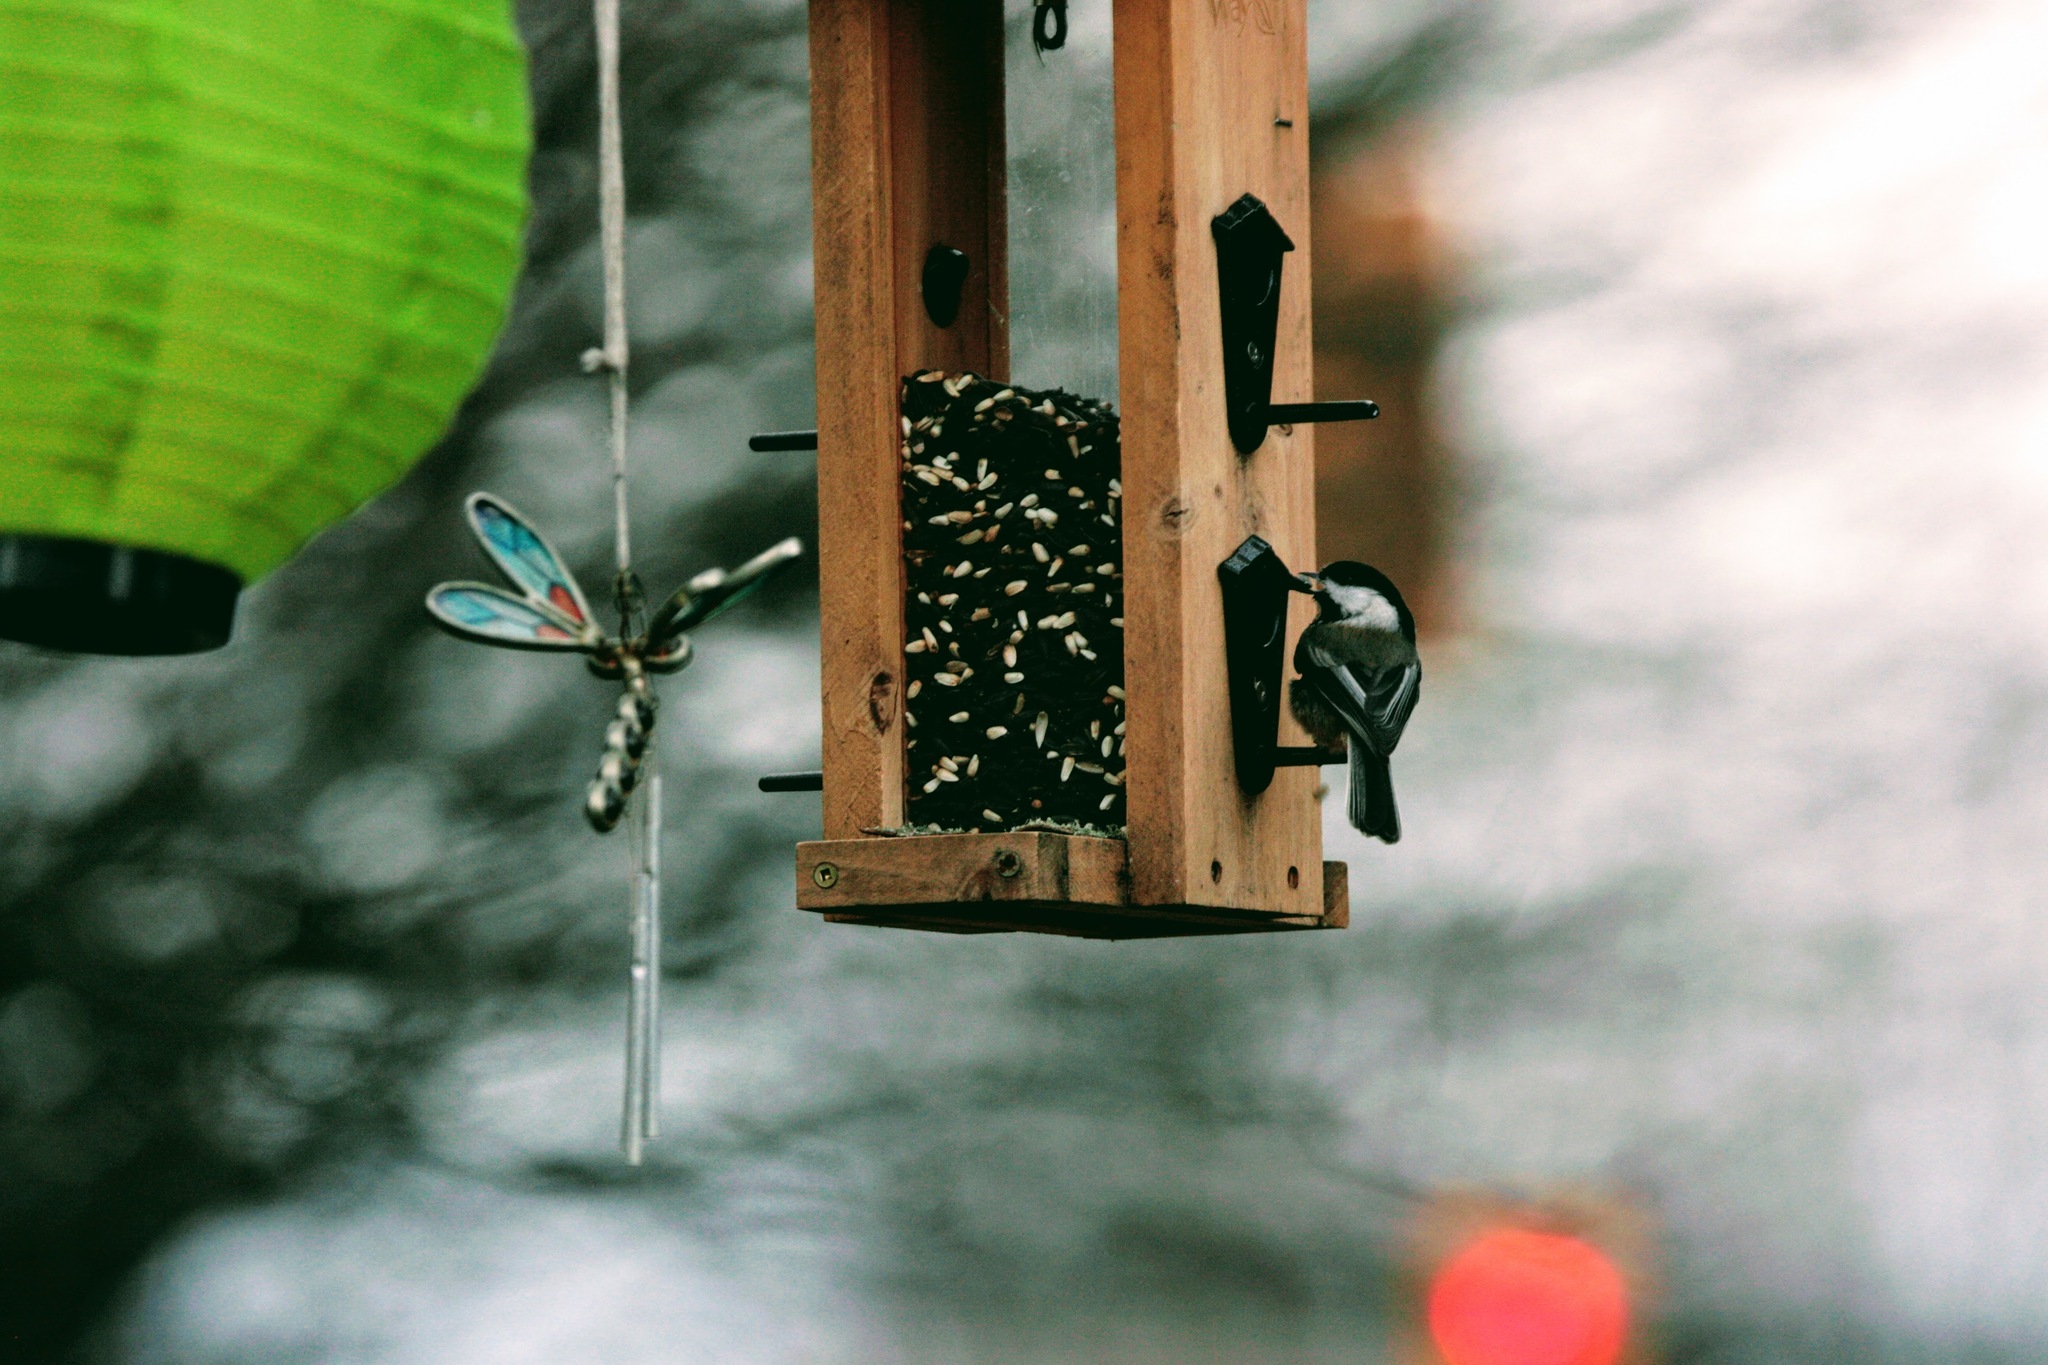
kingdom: Animalia
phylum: Chordata
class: Aves
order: Passeriformes
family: Paridae
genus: Poecile
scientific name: Poecile atricapillus
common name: Black-capped chickadee
